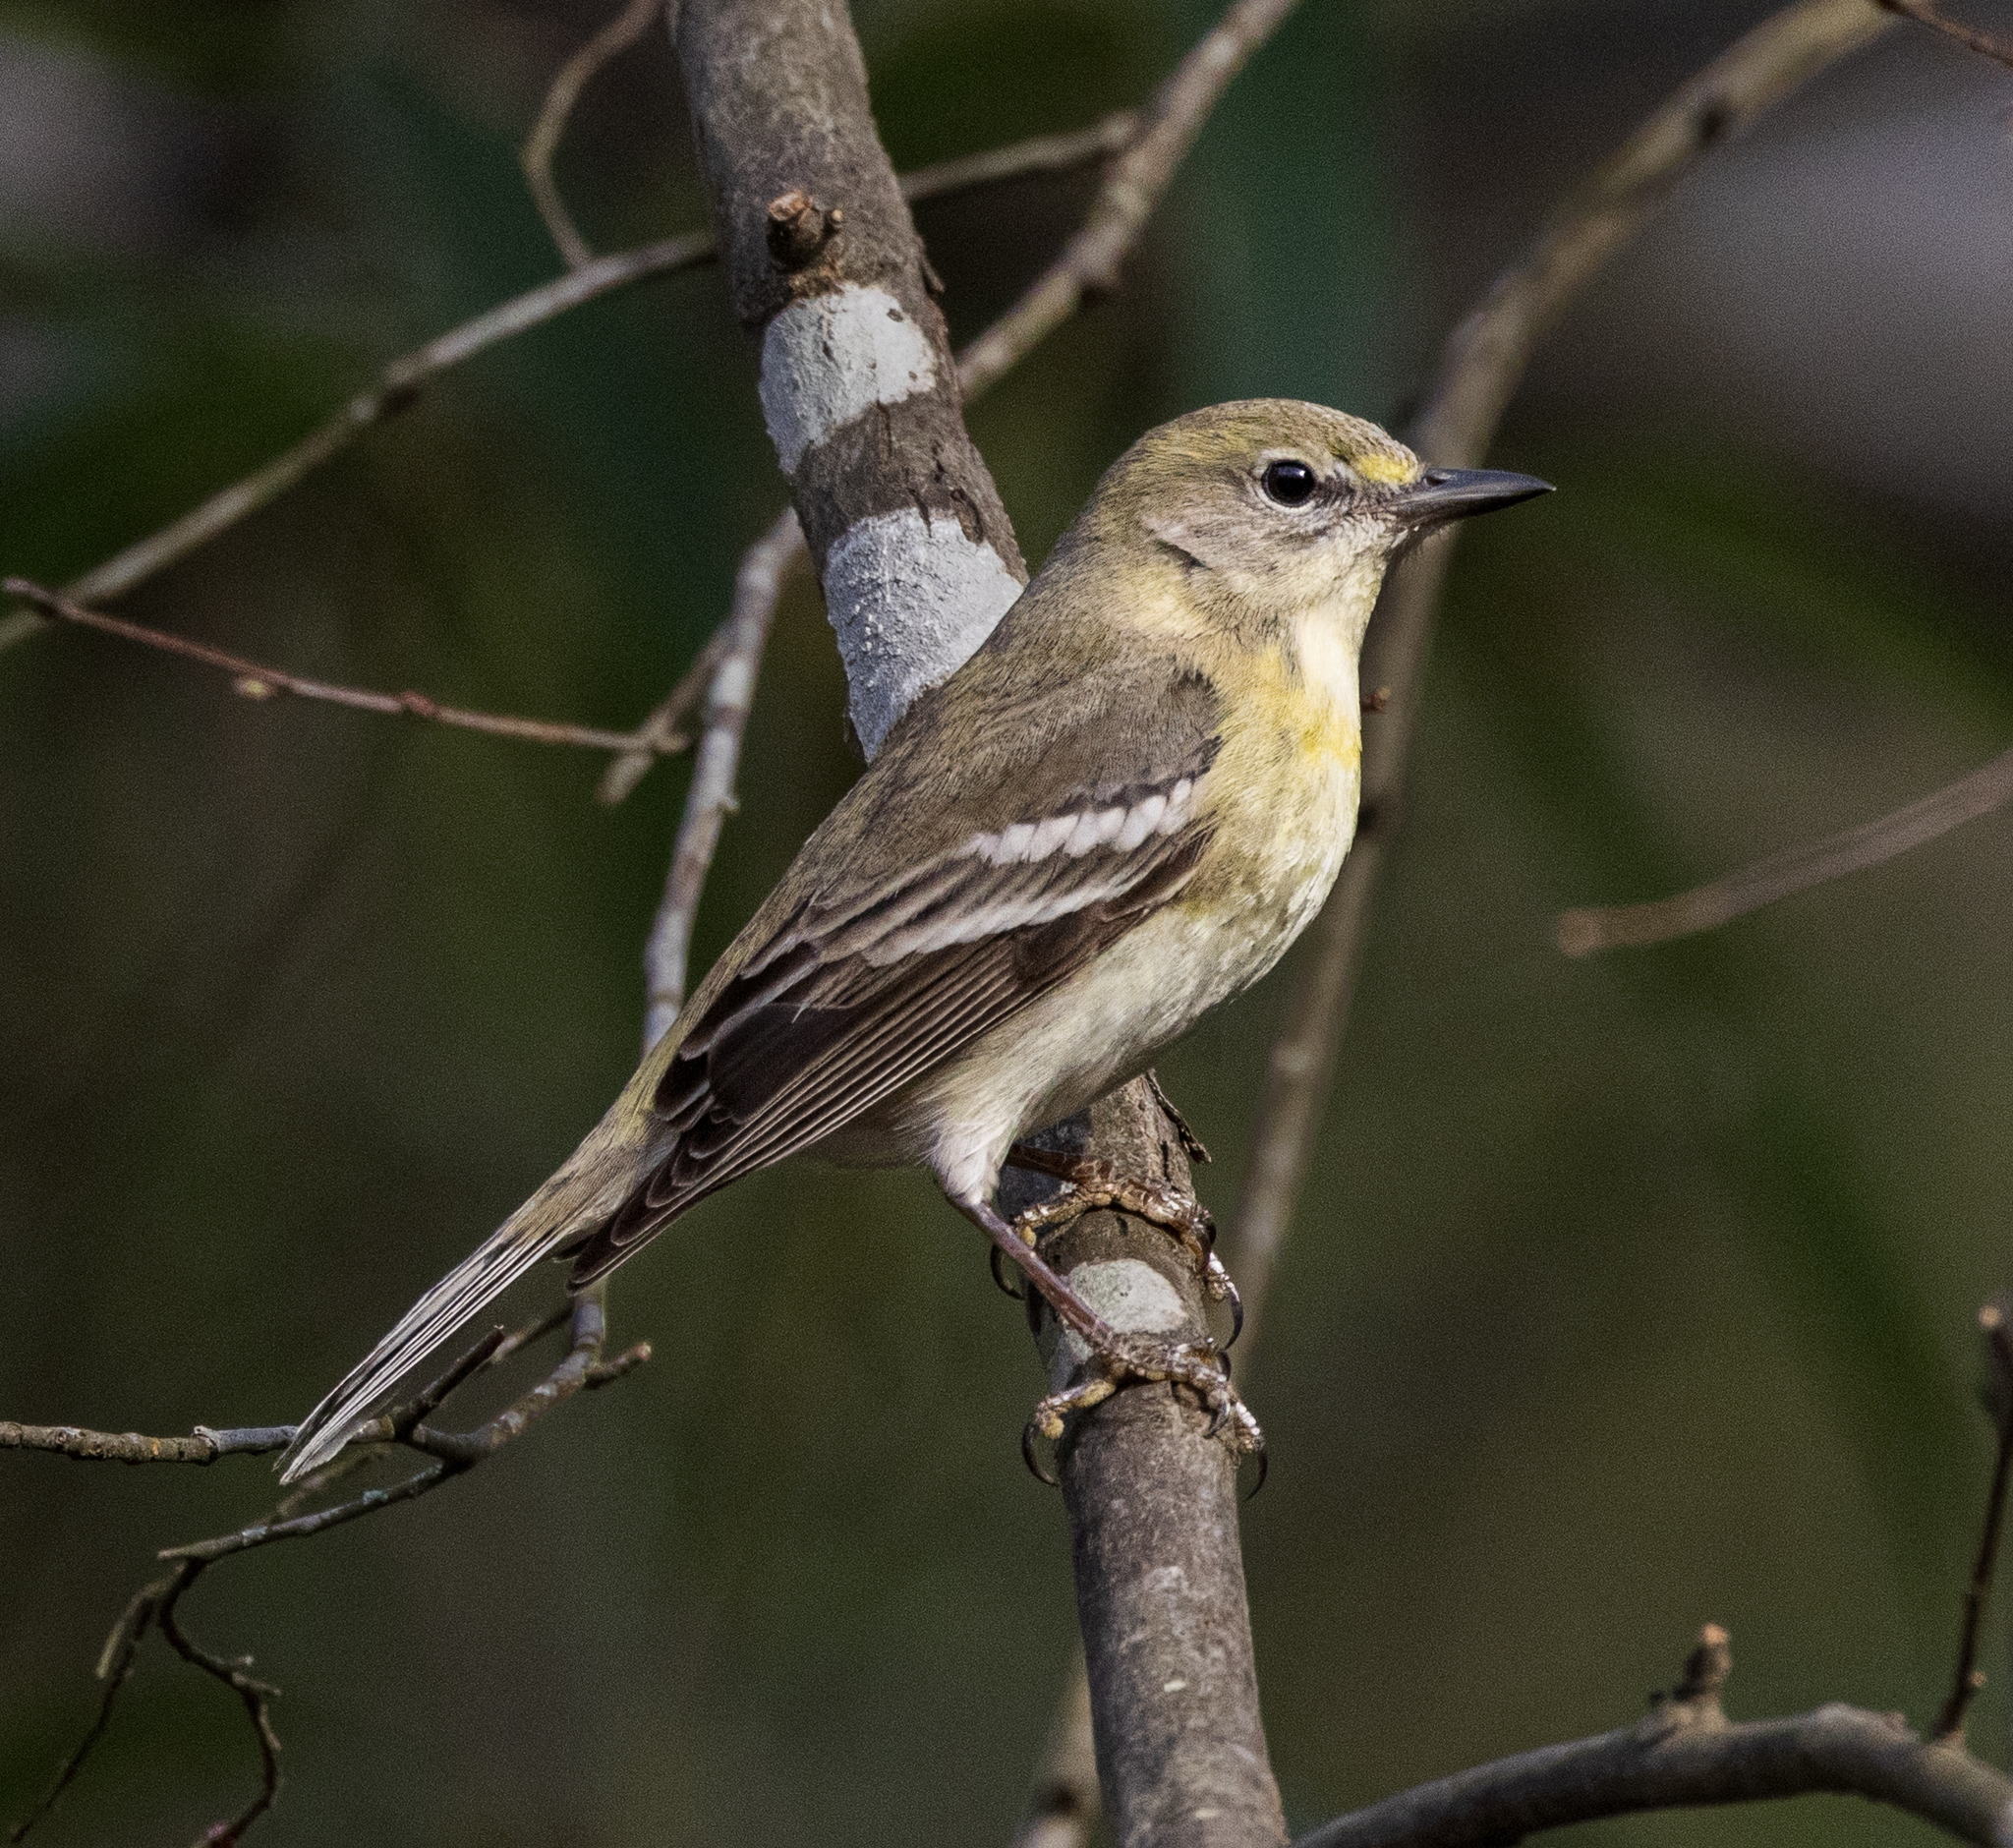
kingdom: Animalia
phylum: Chordata
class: Aves
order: Passeriformes
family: Parulidae
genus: Setophaga
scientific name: Setophaga pinus
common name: Pine warbler
